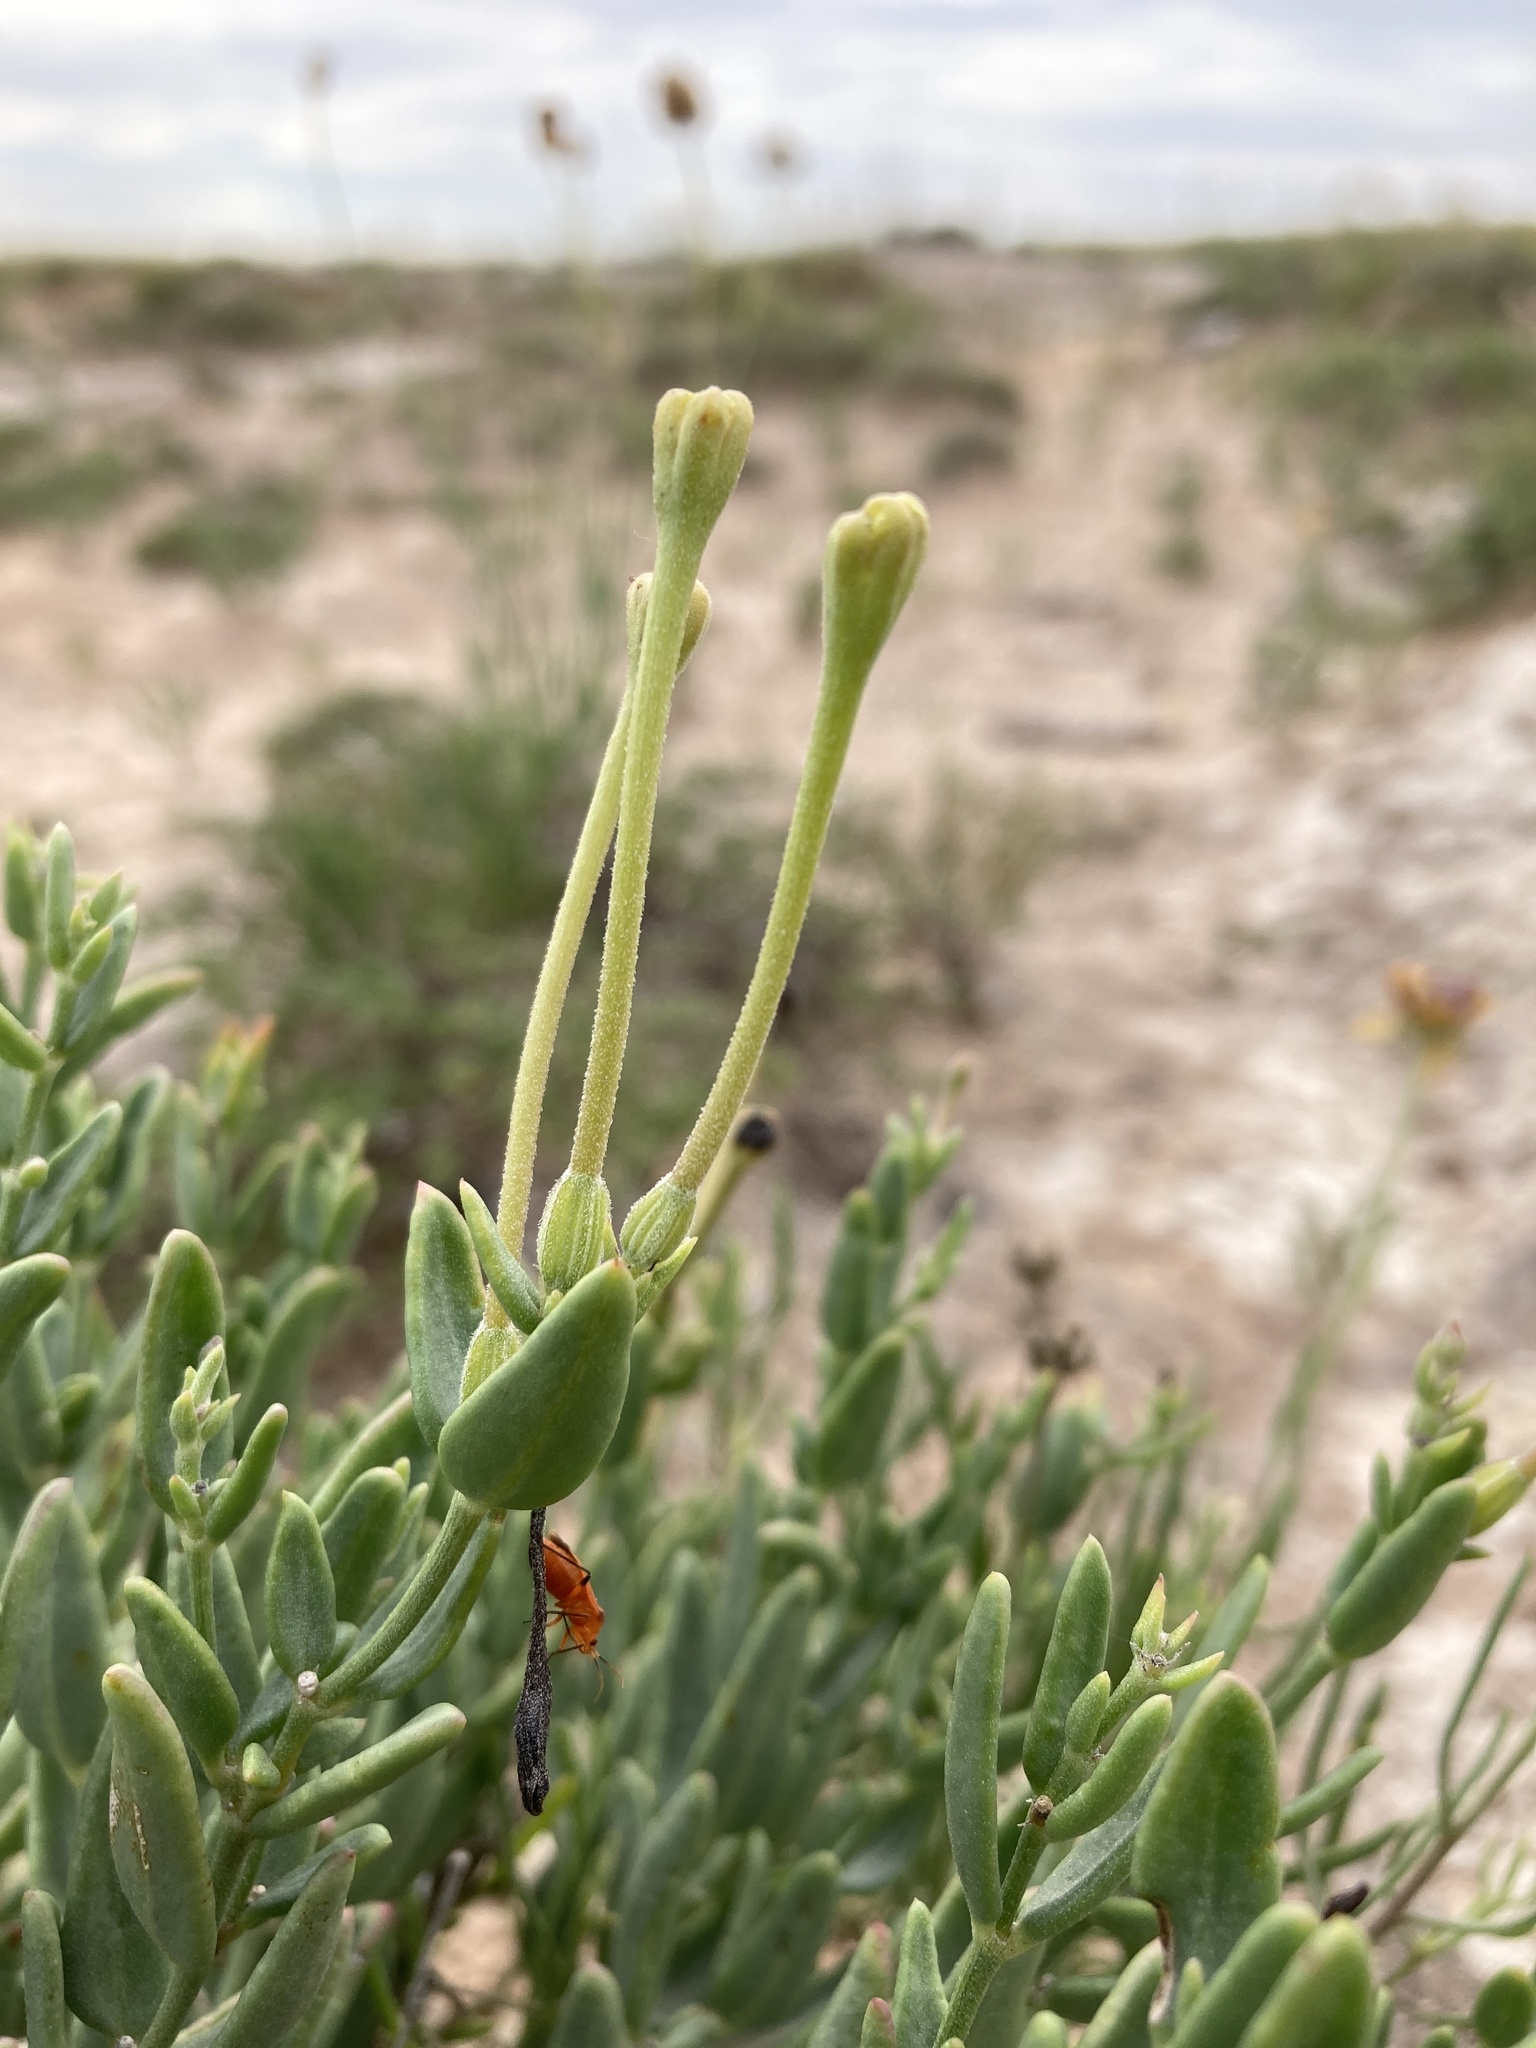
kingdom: Plantae
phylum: Tracheophyta
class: Magnoliopsida
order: Caryophyllales
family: Nyctaginaceae
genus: Acleisanthes
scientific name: Acleisanthes lanceolata
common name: Gypsum moonpod
